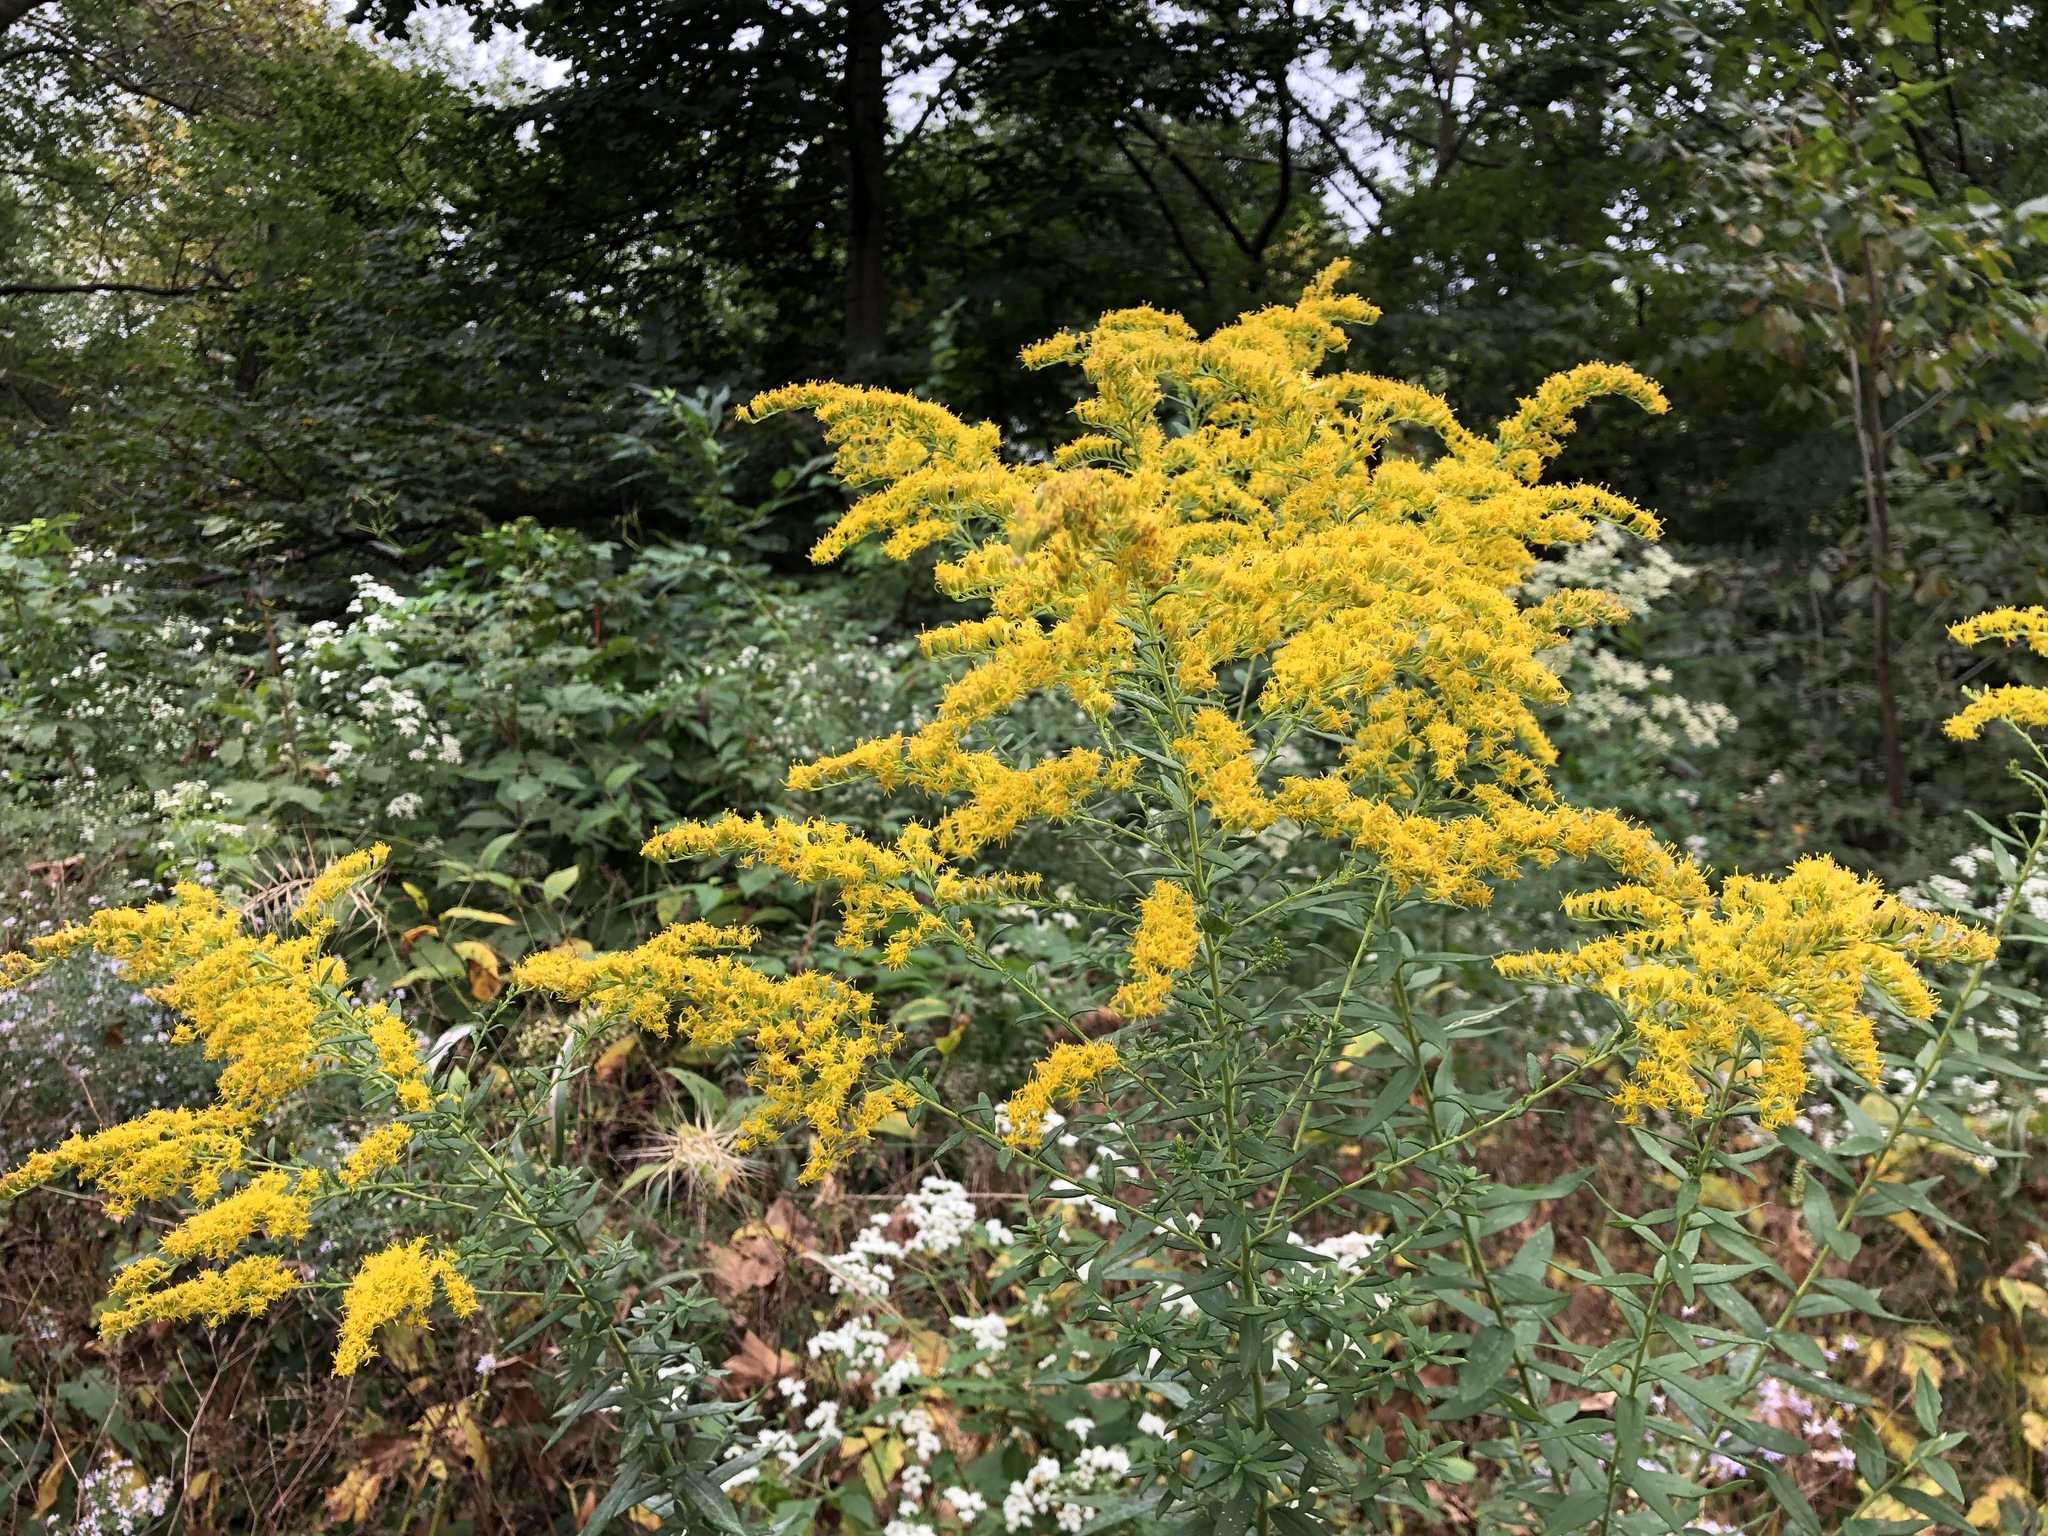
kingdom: Plantae
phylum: Tracheophyta
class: Magnoliopsida
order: Asterales
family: Asteraceae
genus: Solidago
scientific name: Solidago nemoralis
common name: Grey goldenrod
